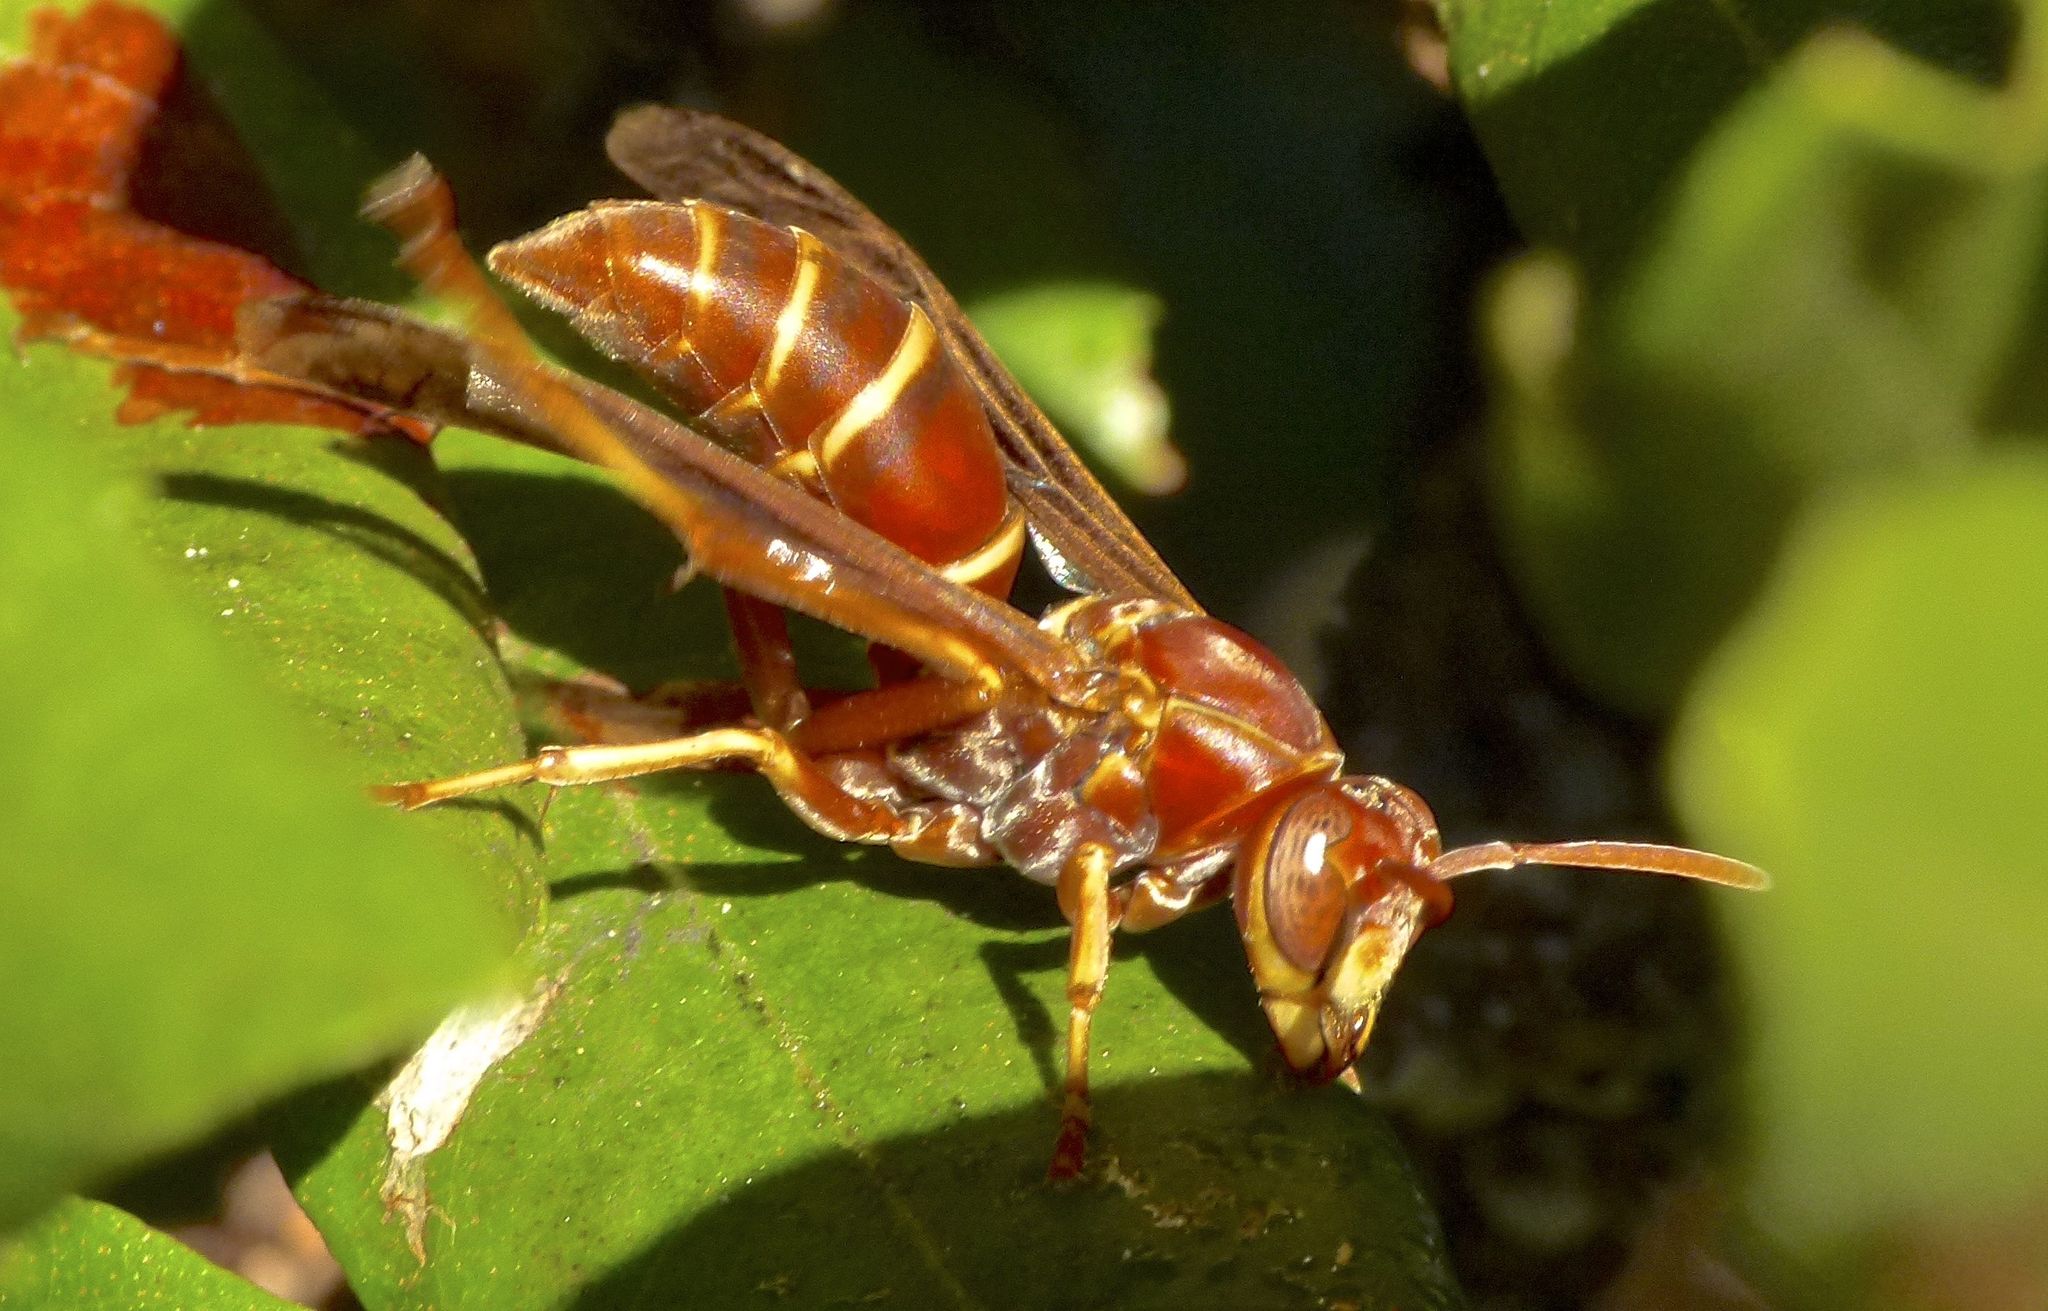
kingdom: Animalia
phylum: Arthropoda
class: Insecta
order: Hymenoptera
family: Eumenidae
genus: Polistes
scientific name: Polistes bellicosus
